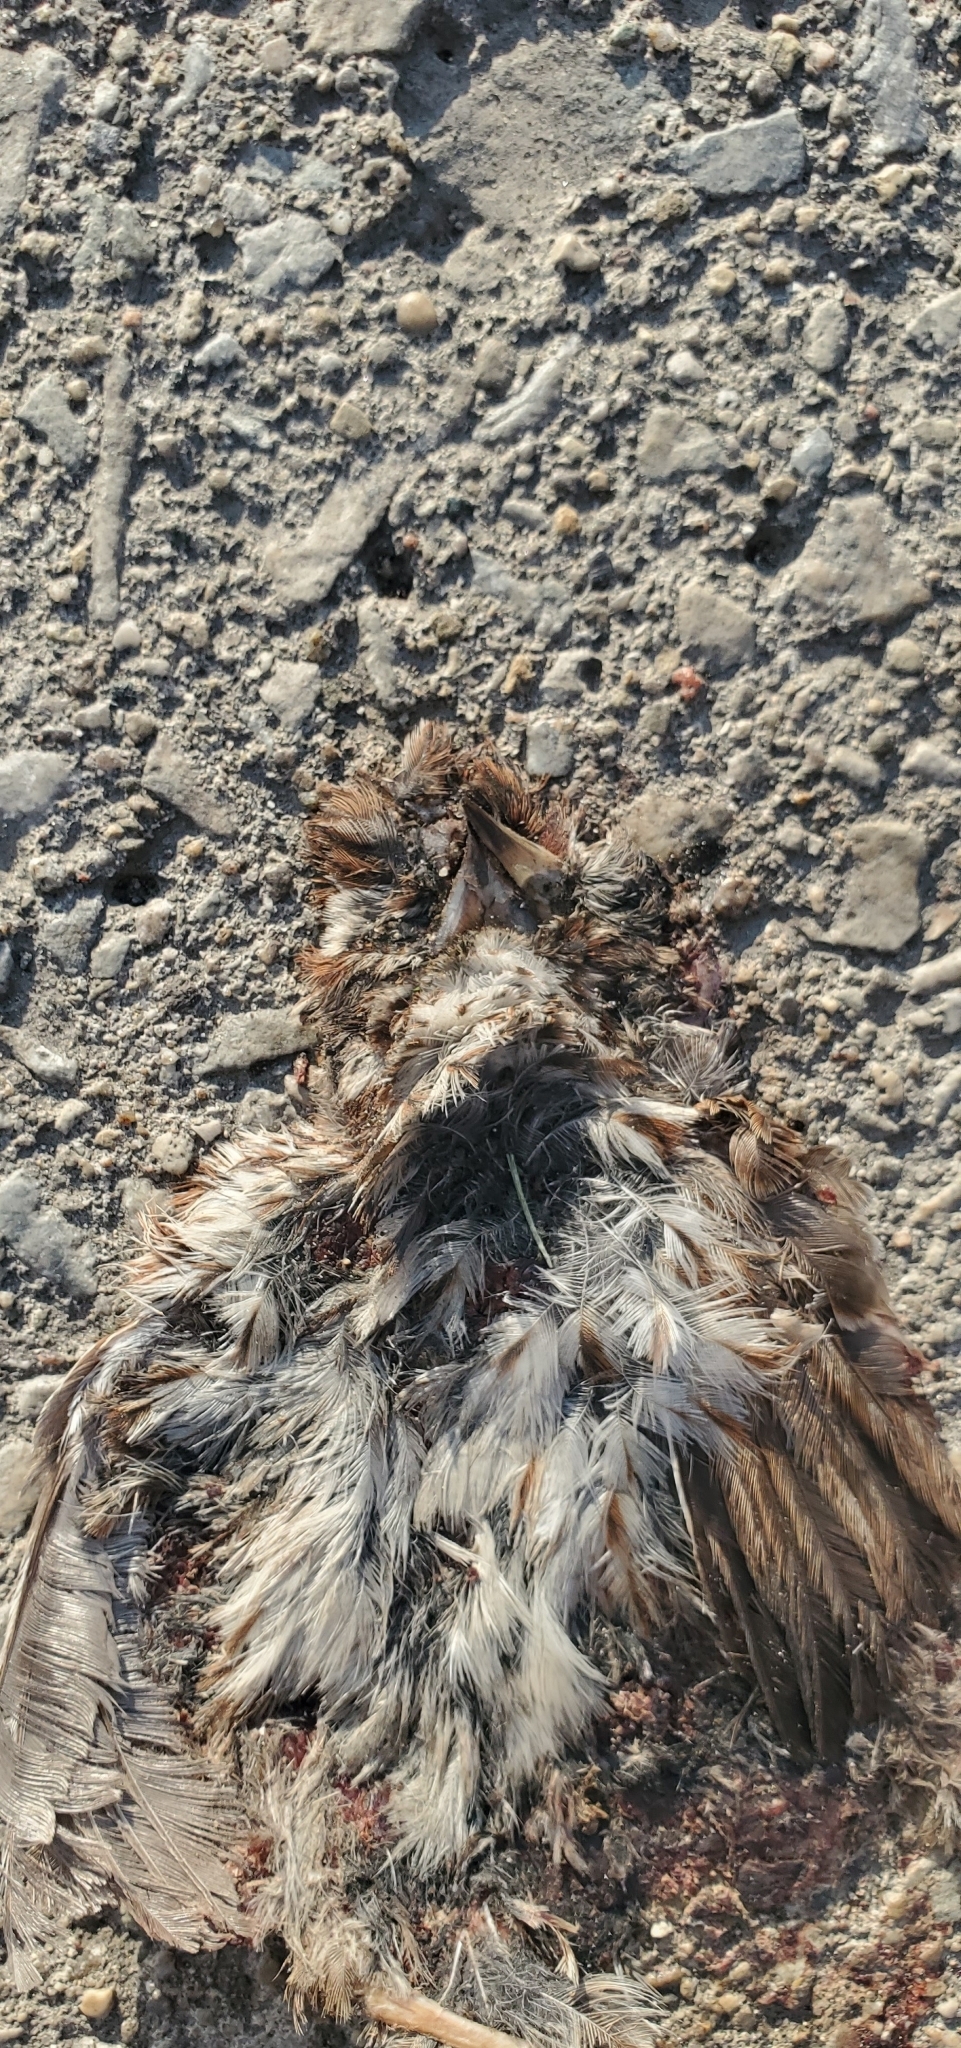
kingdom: Animalia
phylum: Chordata
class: Aves
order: Passeriformes
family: Passeridae
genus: Passer
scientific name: Passer domesticus
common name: House sparrow
